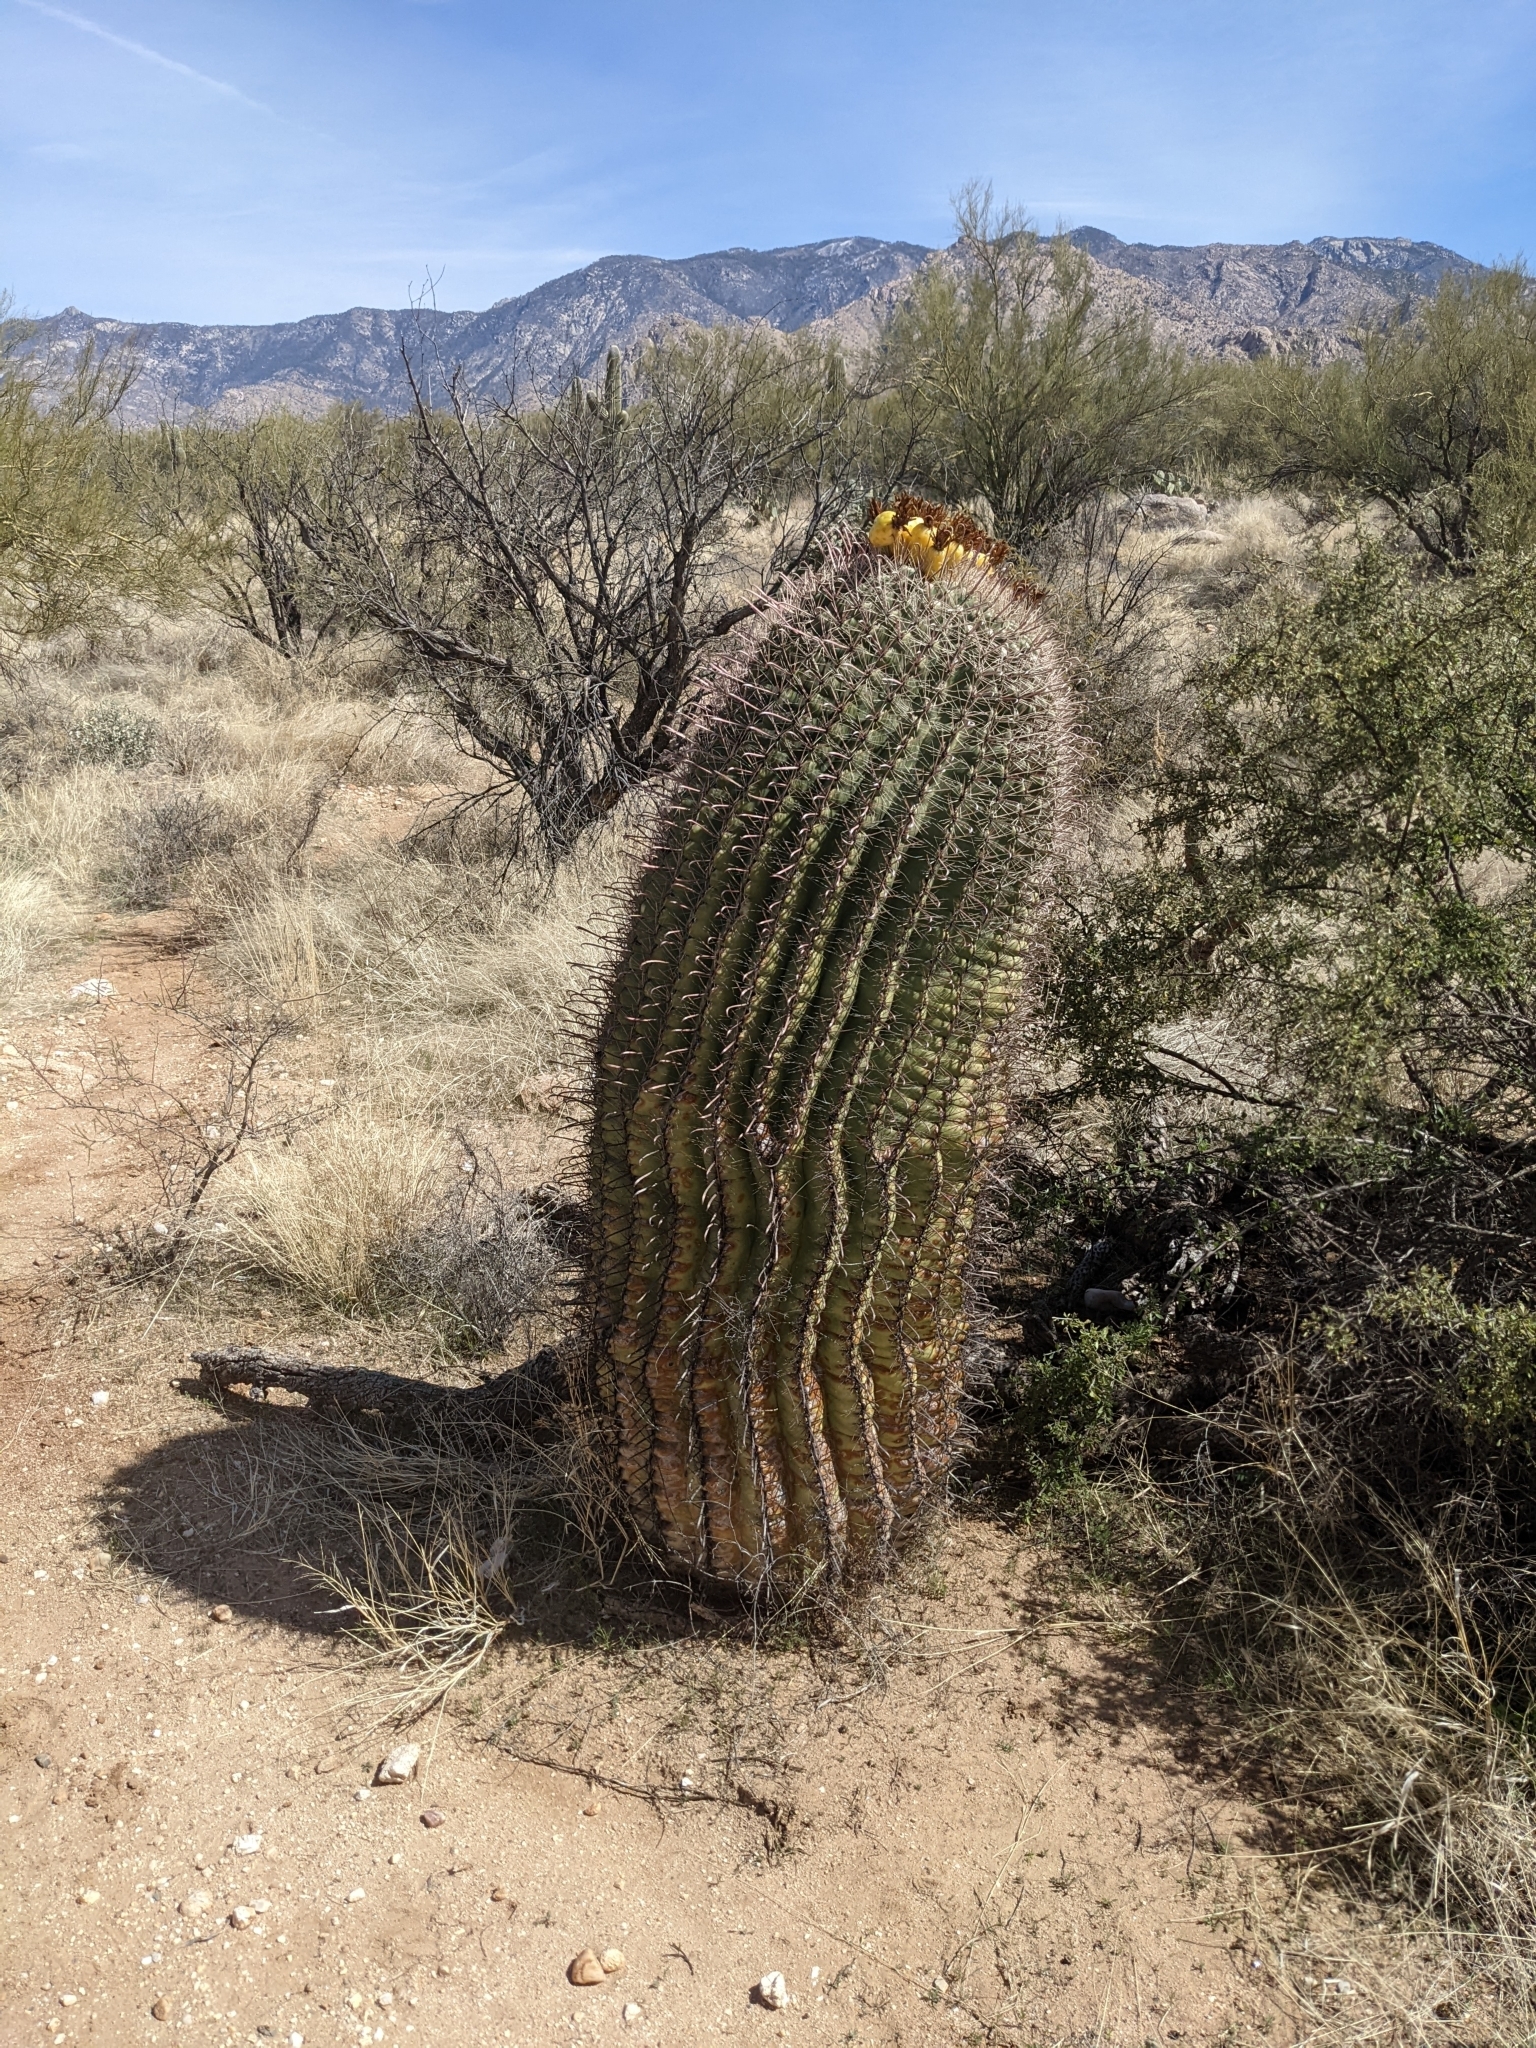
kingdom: Plantae
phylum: Tracheophyta
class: Magnoliopsida
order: Caryophyllales
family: Cactaceae
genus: Ferocactus
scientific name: Ferocactus wislizeni
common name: Candy barrel cactus
